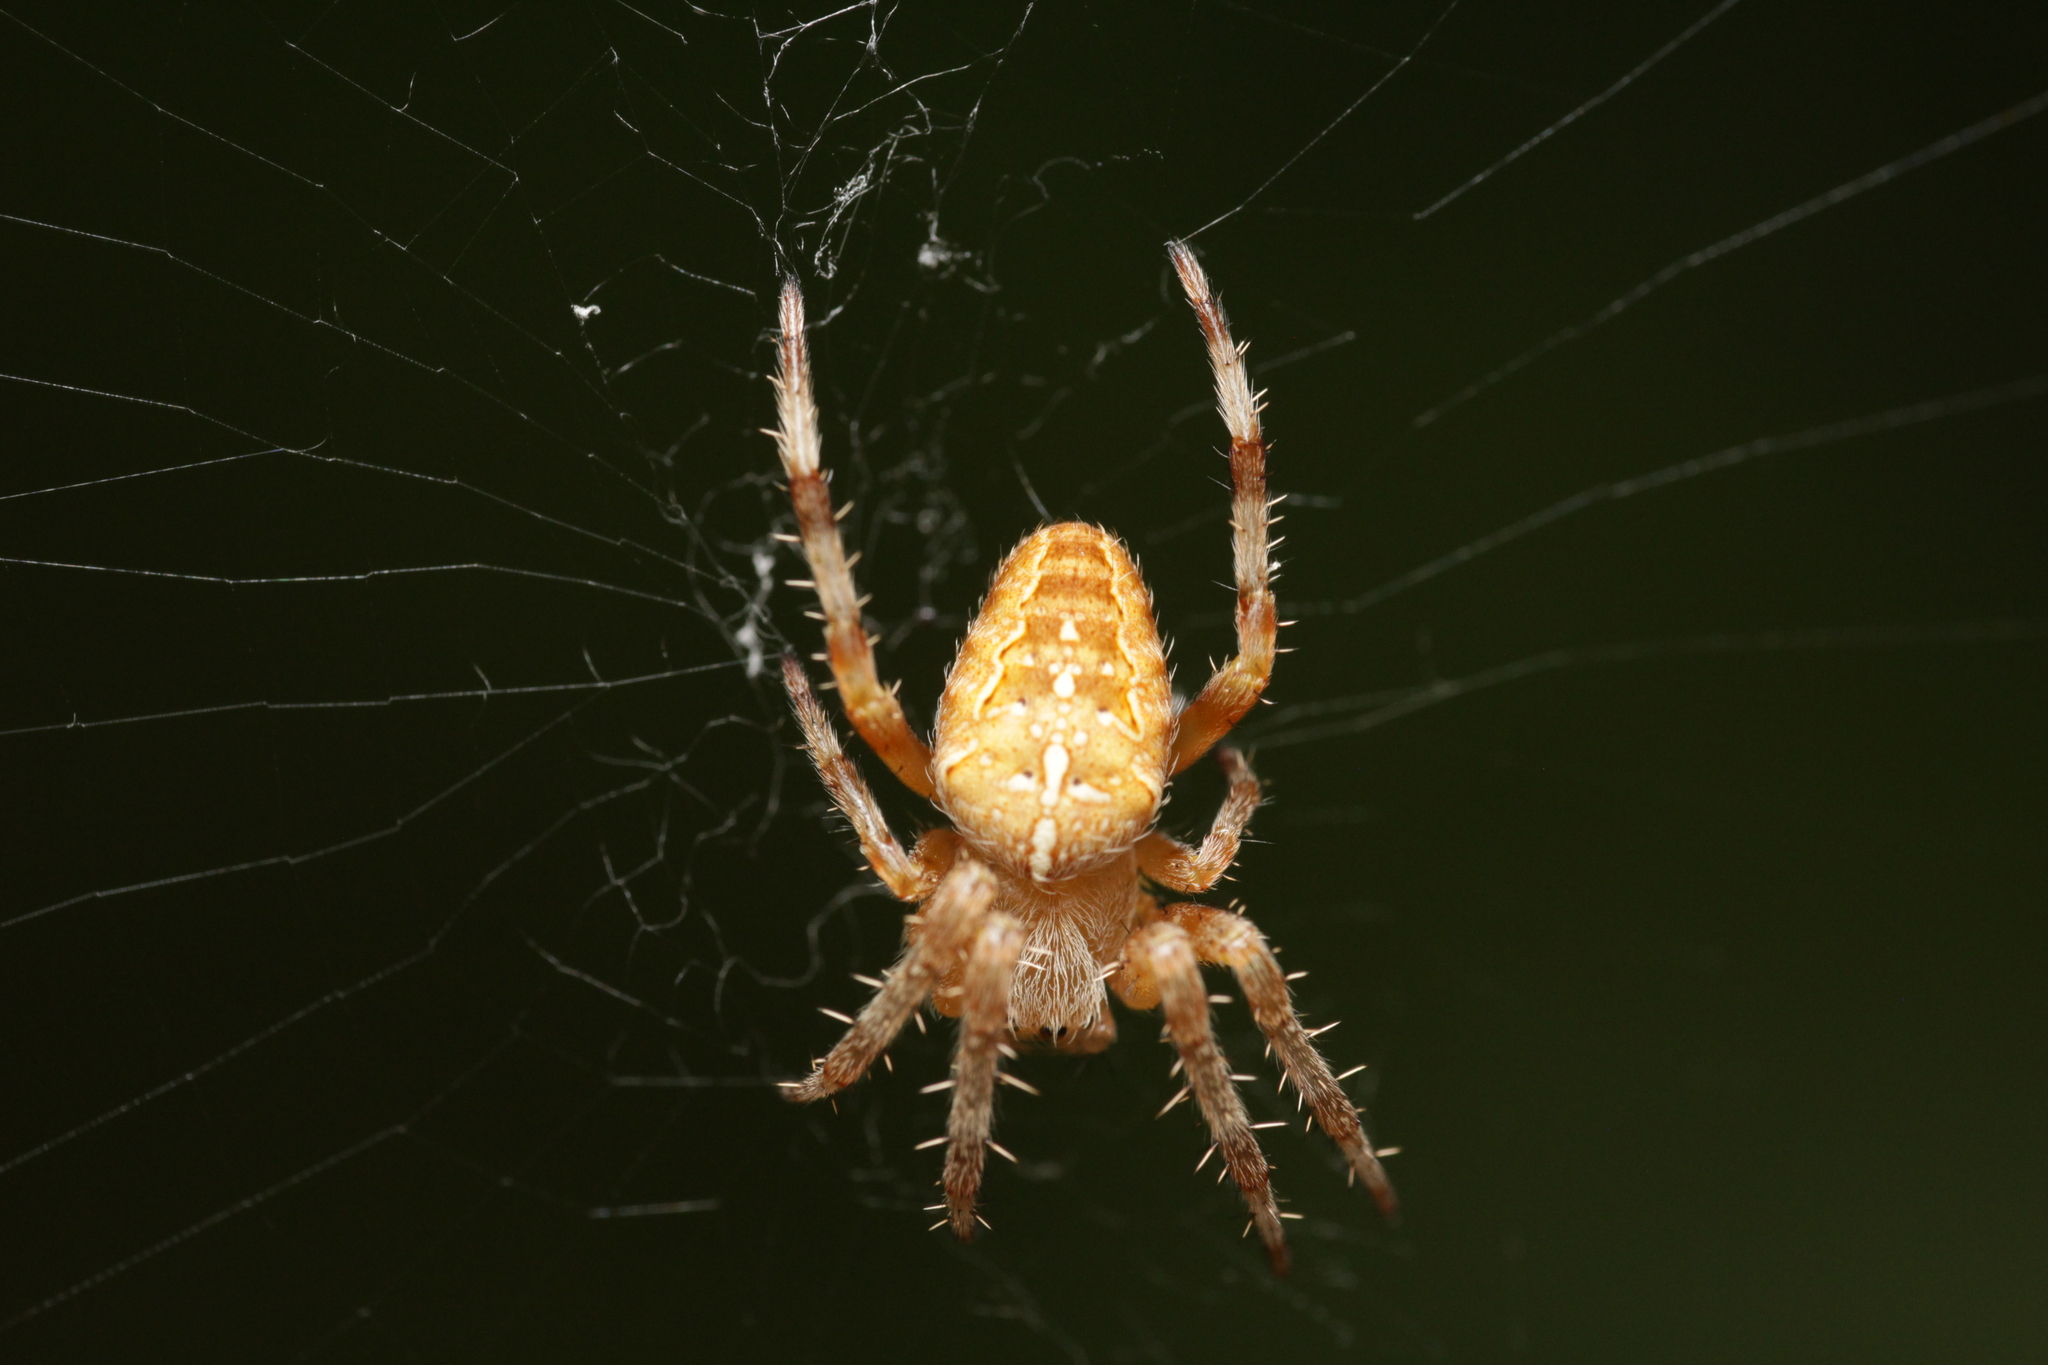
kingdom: Animalia
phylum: Arthropoda
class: Arachnida
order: Araneae
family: Araneidae
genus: Araneus
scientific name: Araneus diadematus
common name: Cross orbweaver
